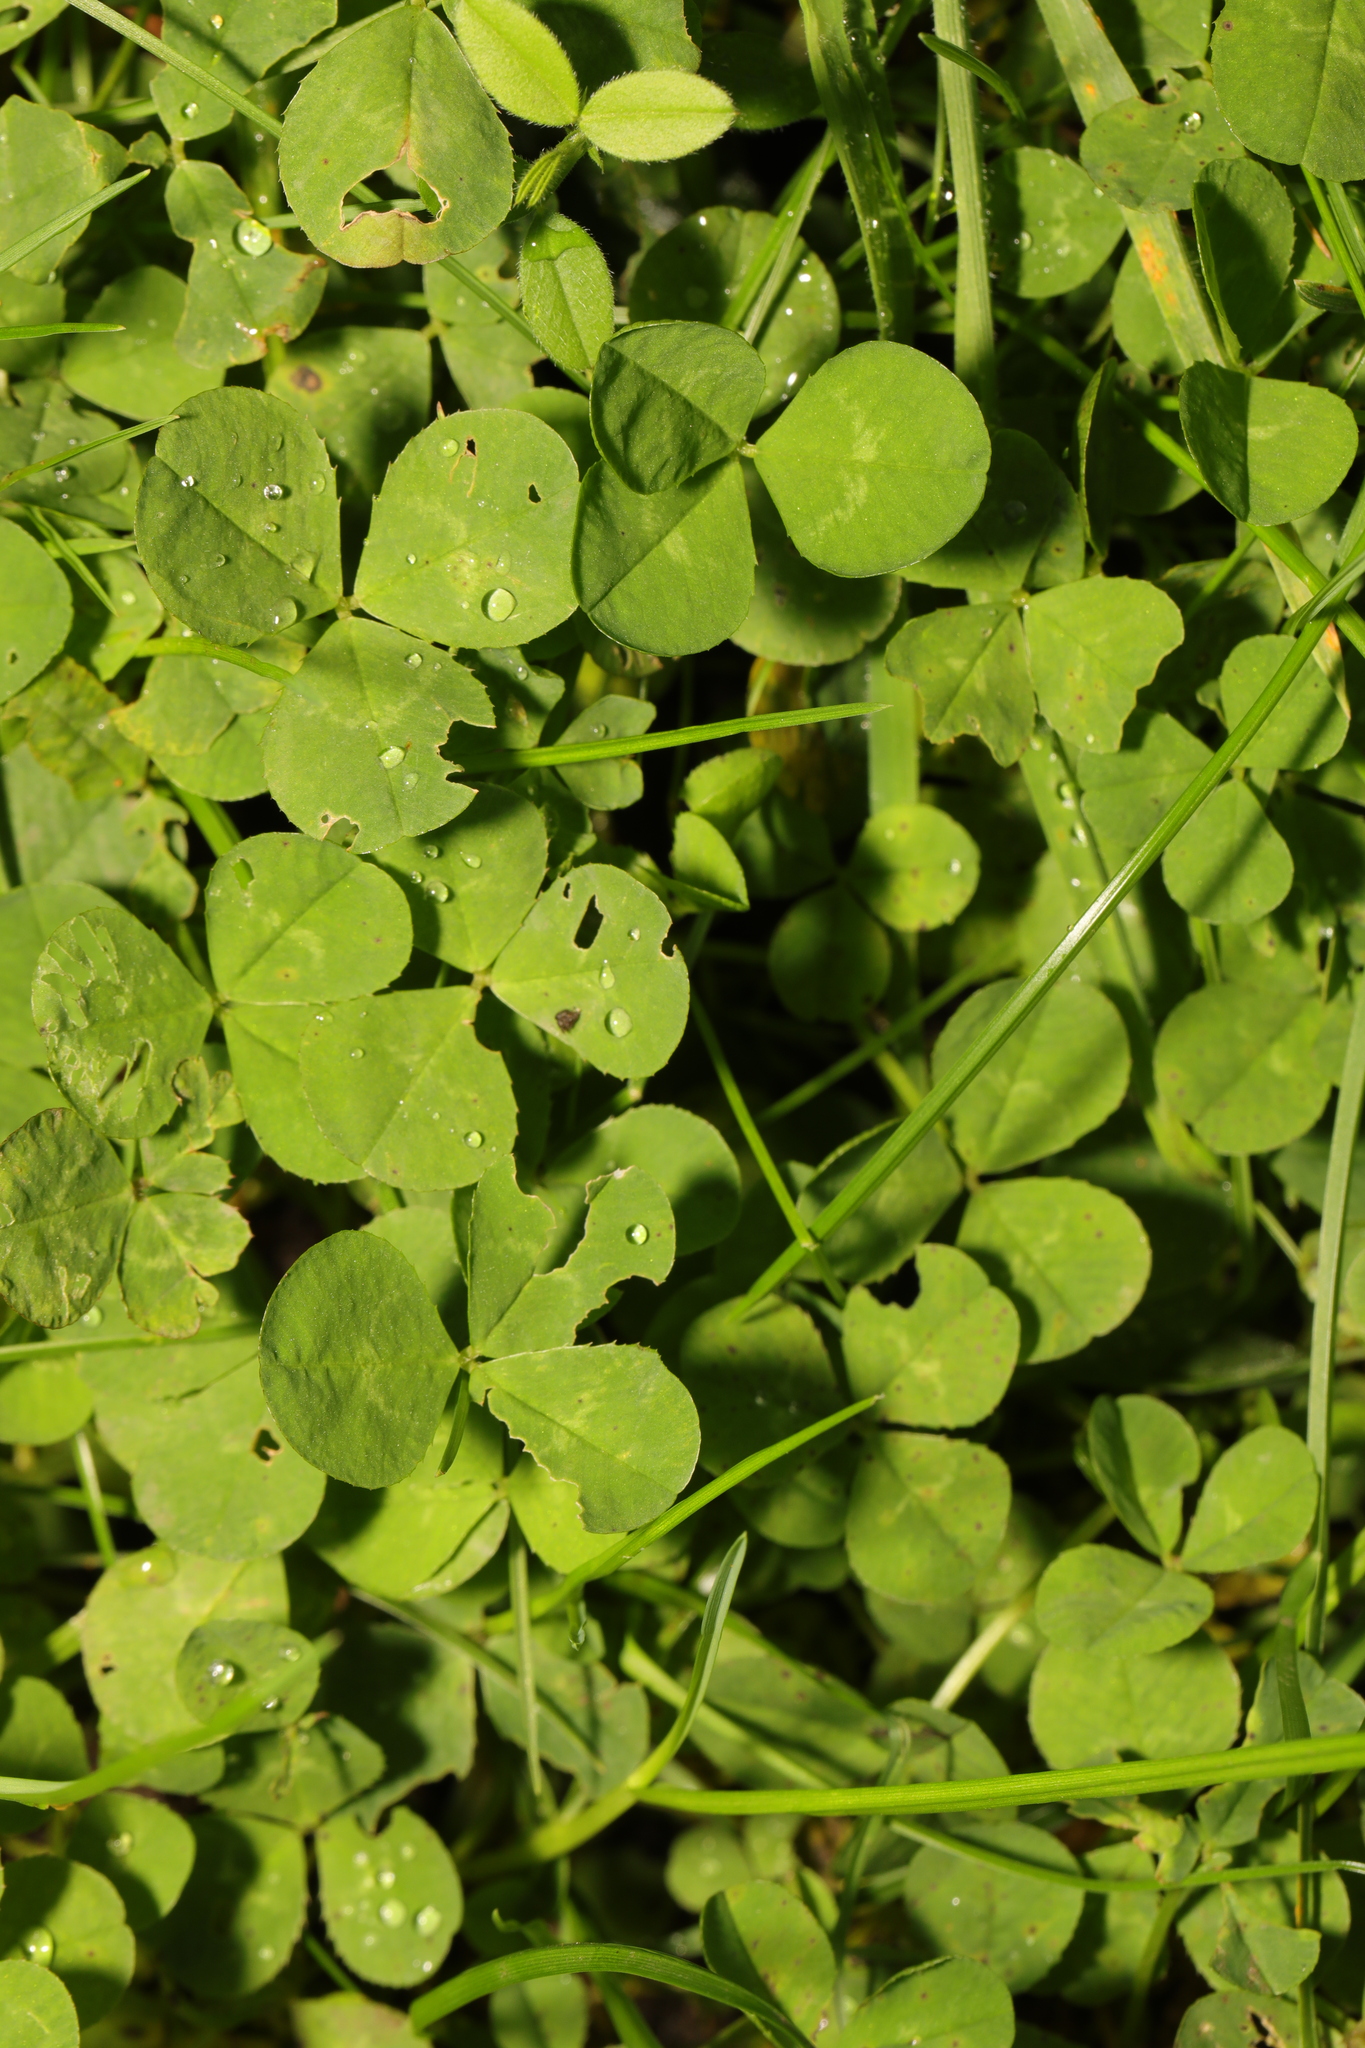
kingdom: Plantae
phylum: Tracheophyta
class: Magnoliopsida
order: Fabales
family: Fabaceae
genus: Trifolium
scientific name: Trifolium repens
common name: White clover
